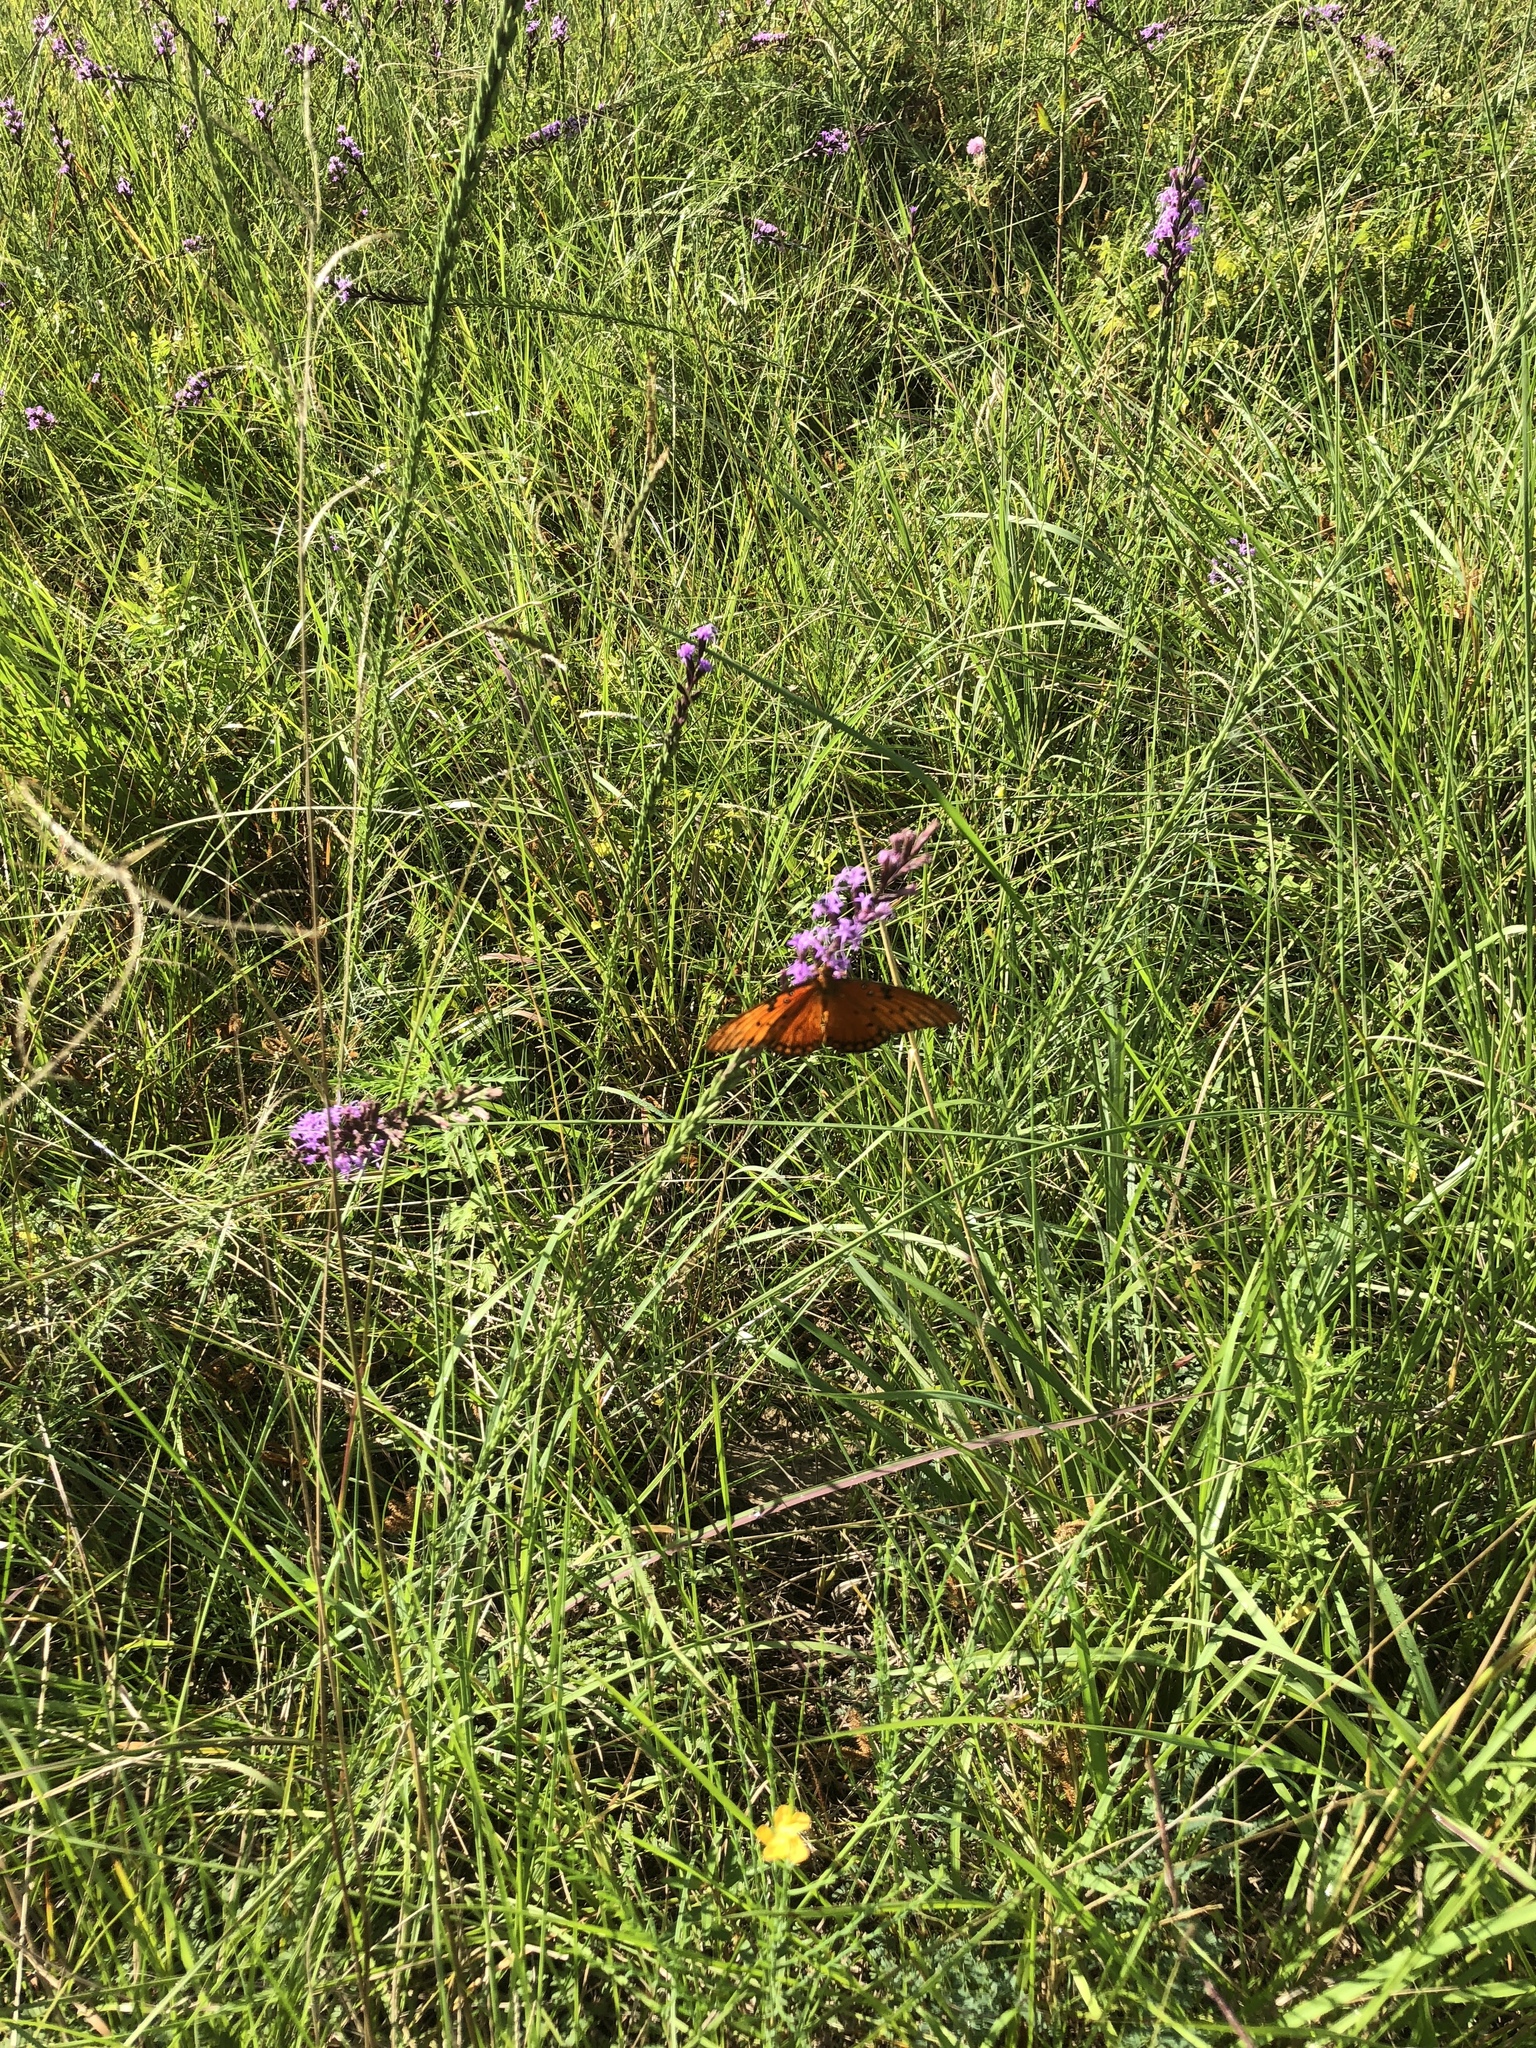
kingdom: Animalia
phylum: Arthropoda
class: Insecta
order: Lepidoptera
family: Nymphalidae
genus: Dione
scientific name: Dione vanillae
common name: Gulf fritillary
